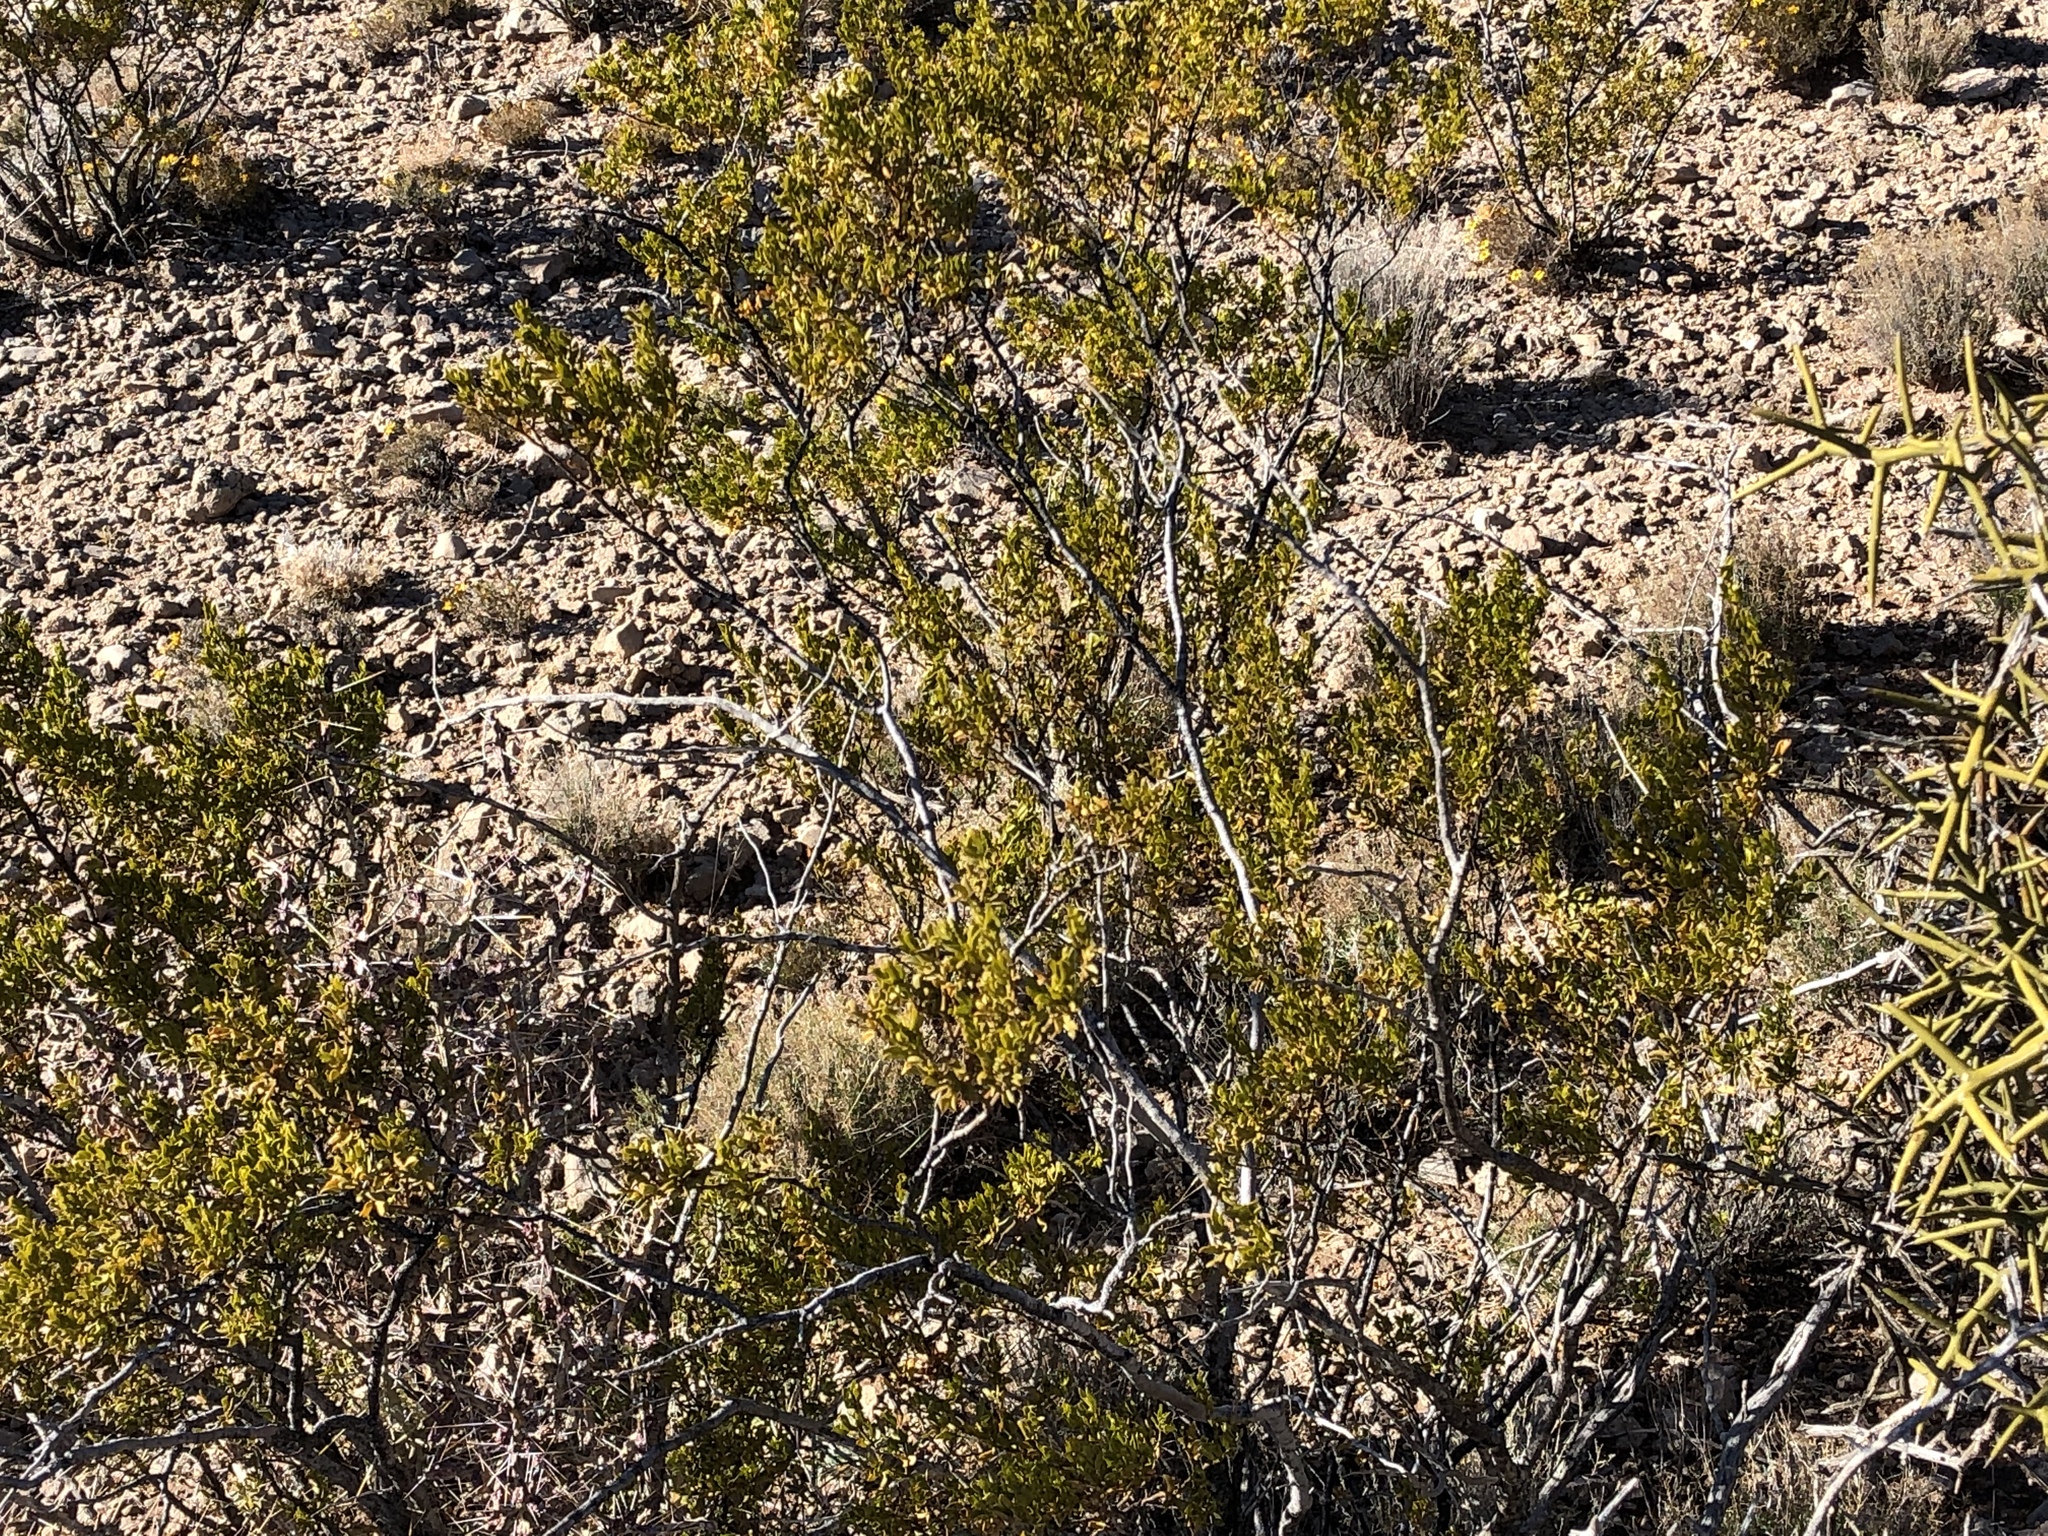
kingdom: Plantae
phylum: Tracheophyta
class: Magnoliopsida
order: Zygophyllales
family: Zygophyllaceae
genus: Larrea
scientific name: Larrea tridentata
